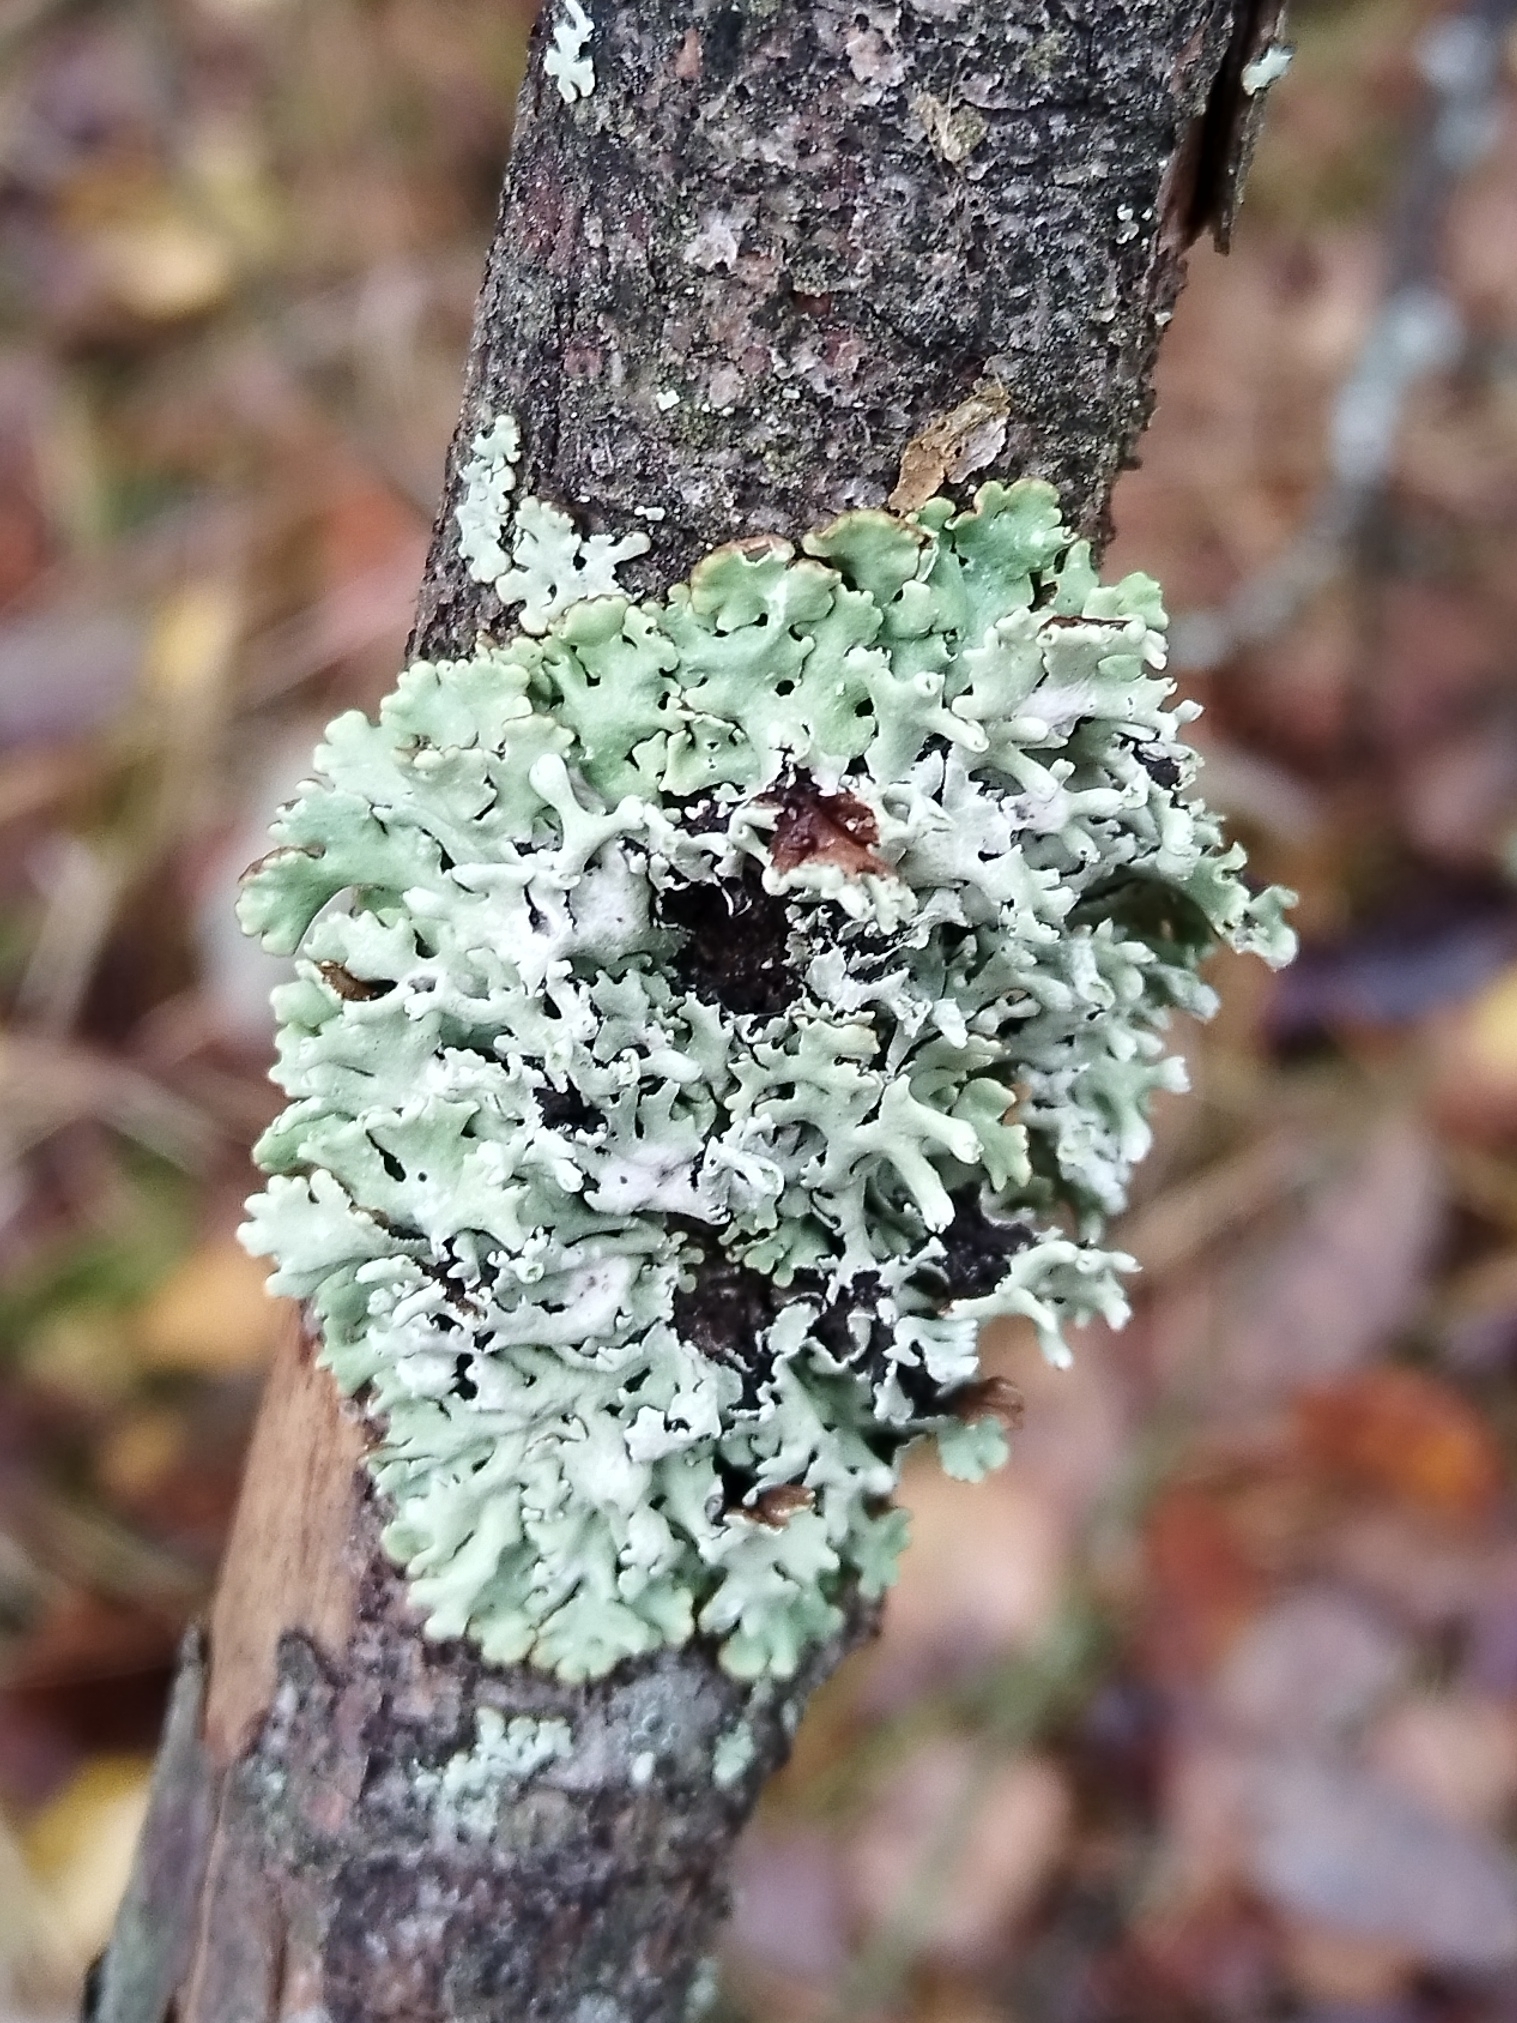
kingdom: Fungi
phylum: Ascomycota
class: Lecanoromycetes
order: Lecanorales
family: Parmeliaceae
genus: Hypogymnia
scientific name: Hypogymnia physodes
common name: Dark crottle
